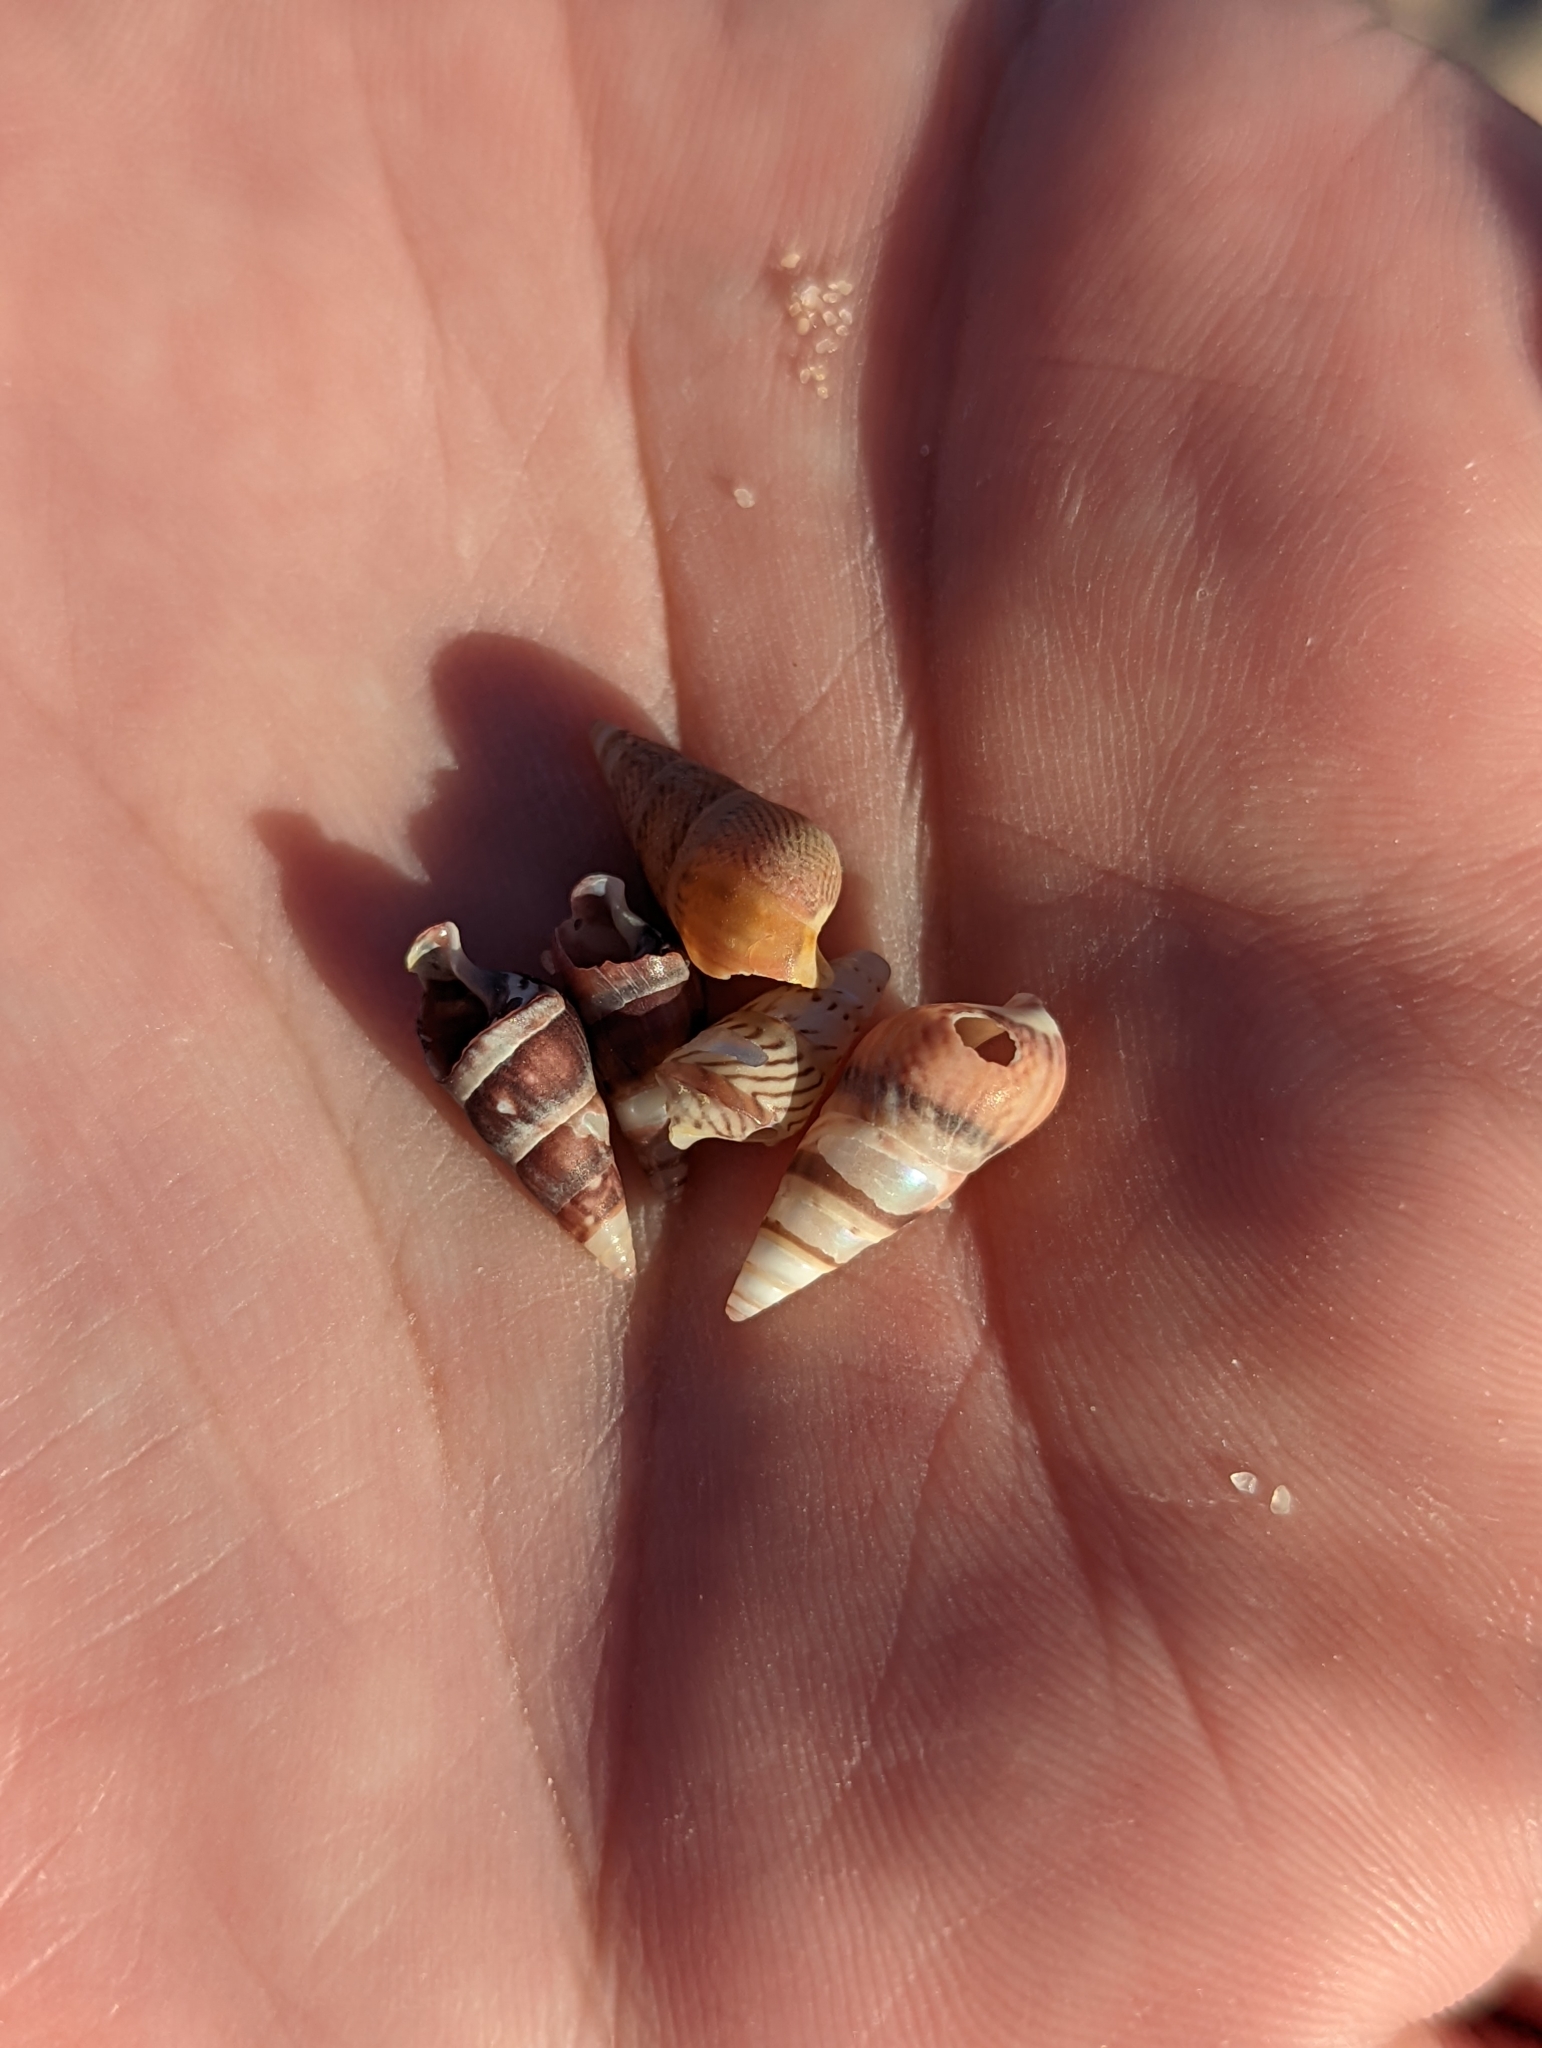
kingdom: Animalia
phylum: Mollusca
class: Gastropoda
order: Trochida
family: Trochidae
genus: Bankivia
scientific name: Bankivia fasciata
